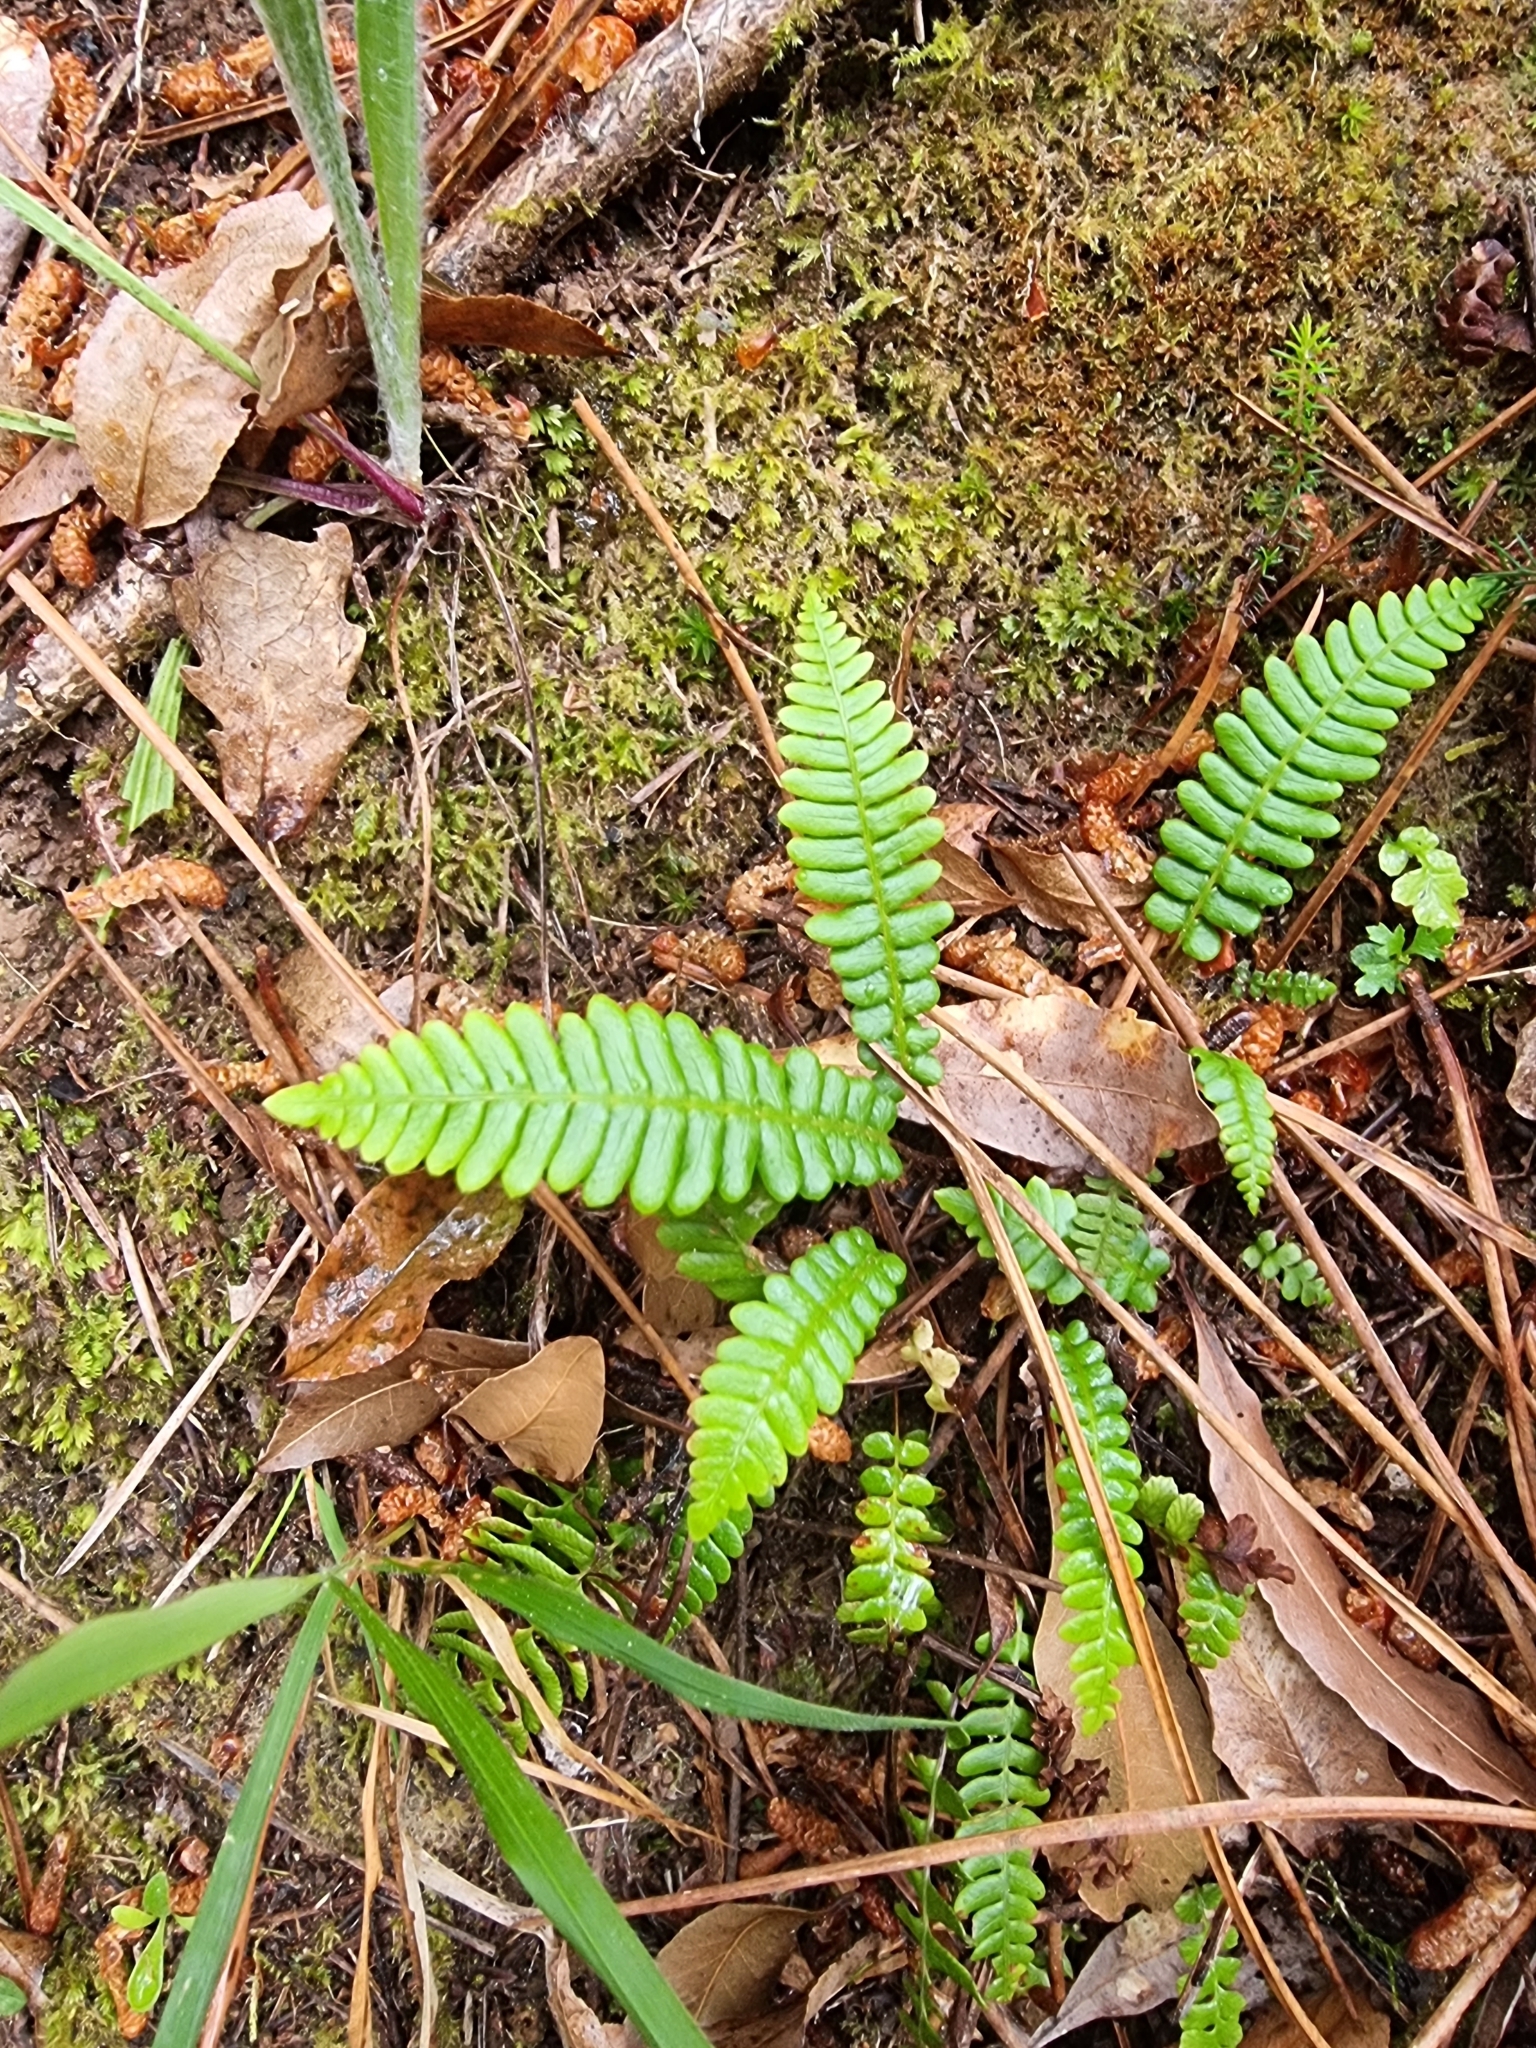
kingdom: Plantae
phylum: Tracheophyta
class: Polypodiopsida
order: Polypodiales
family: Blechnaceae
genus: Struthiopteris
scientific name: Struthiopteris spicant
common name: Deer fern
